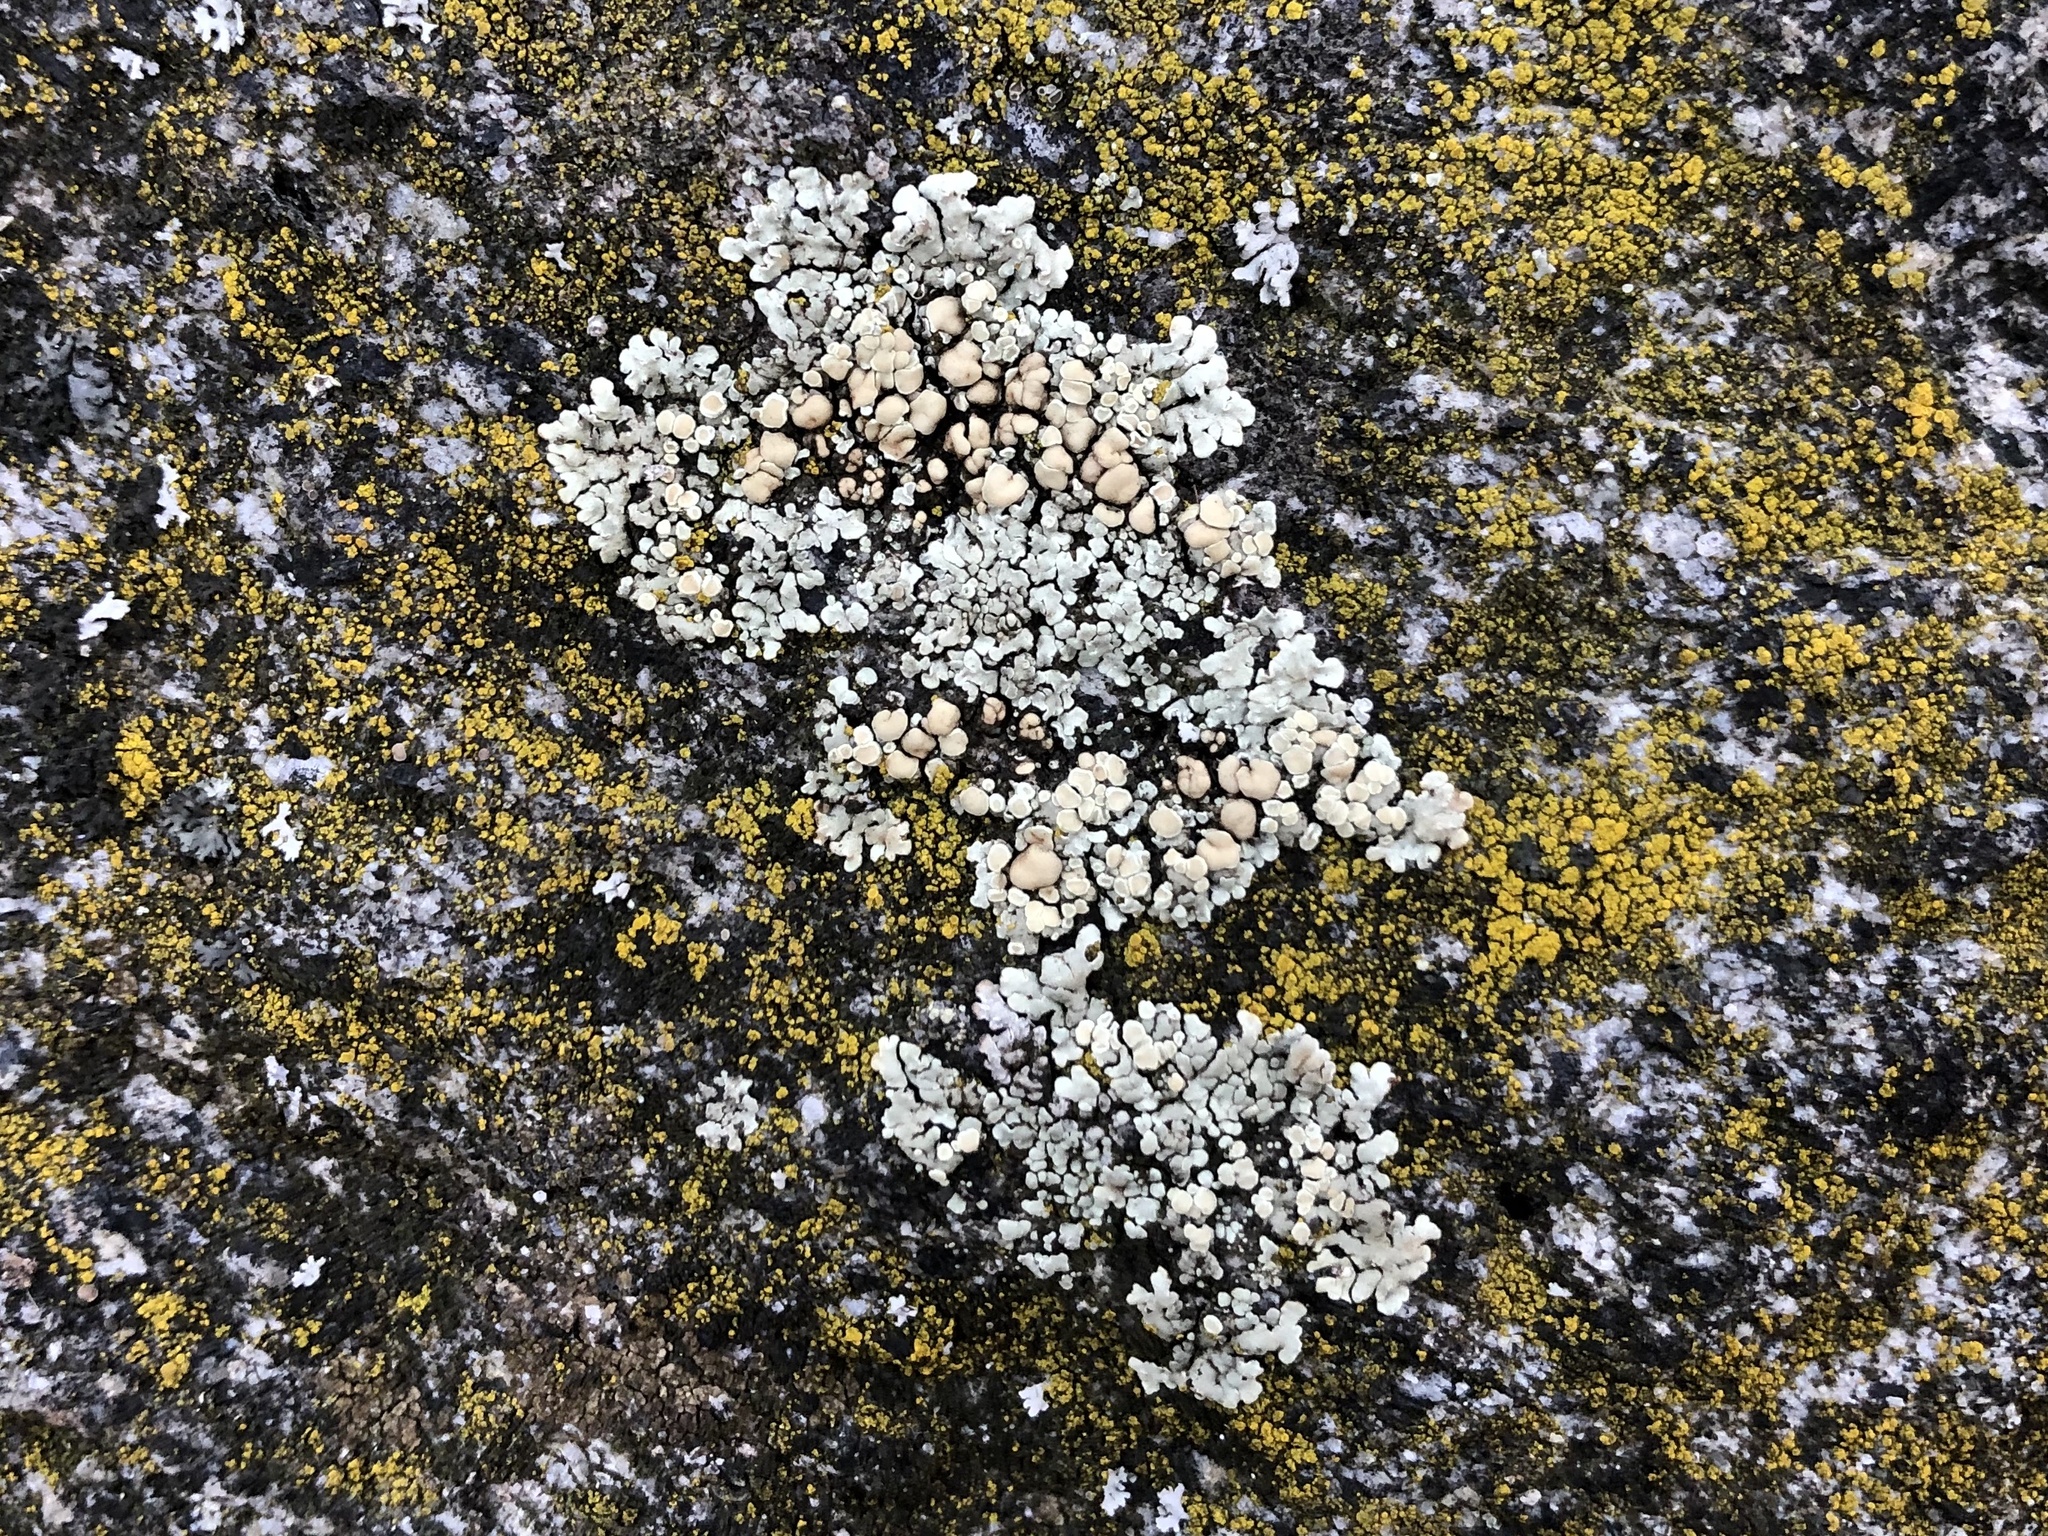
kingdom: Fungi
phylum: Ascomycota
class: Lecanoromycetes
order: Lecanorales
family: Lecanoraceae
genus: Protoparmeliopsis
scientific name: Protoparmeliopsis muralis
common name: Stonewall rim lichen
